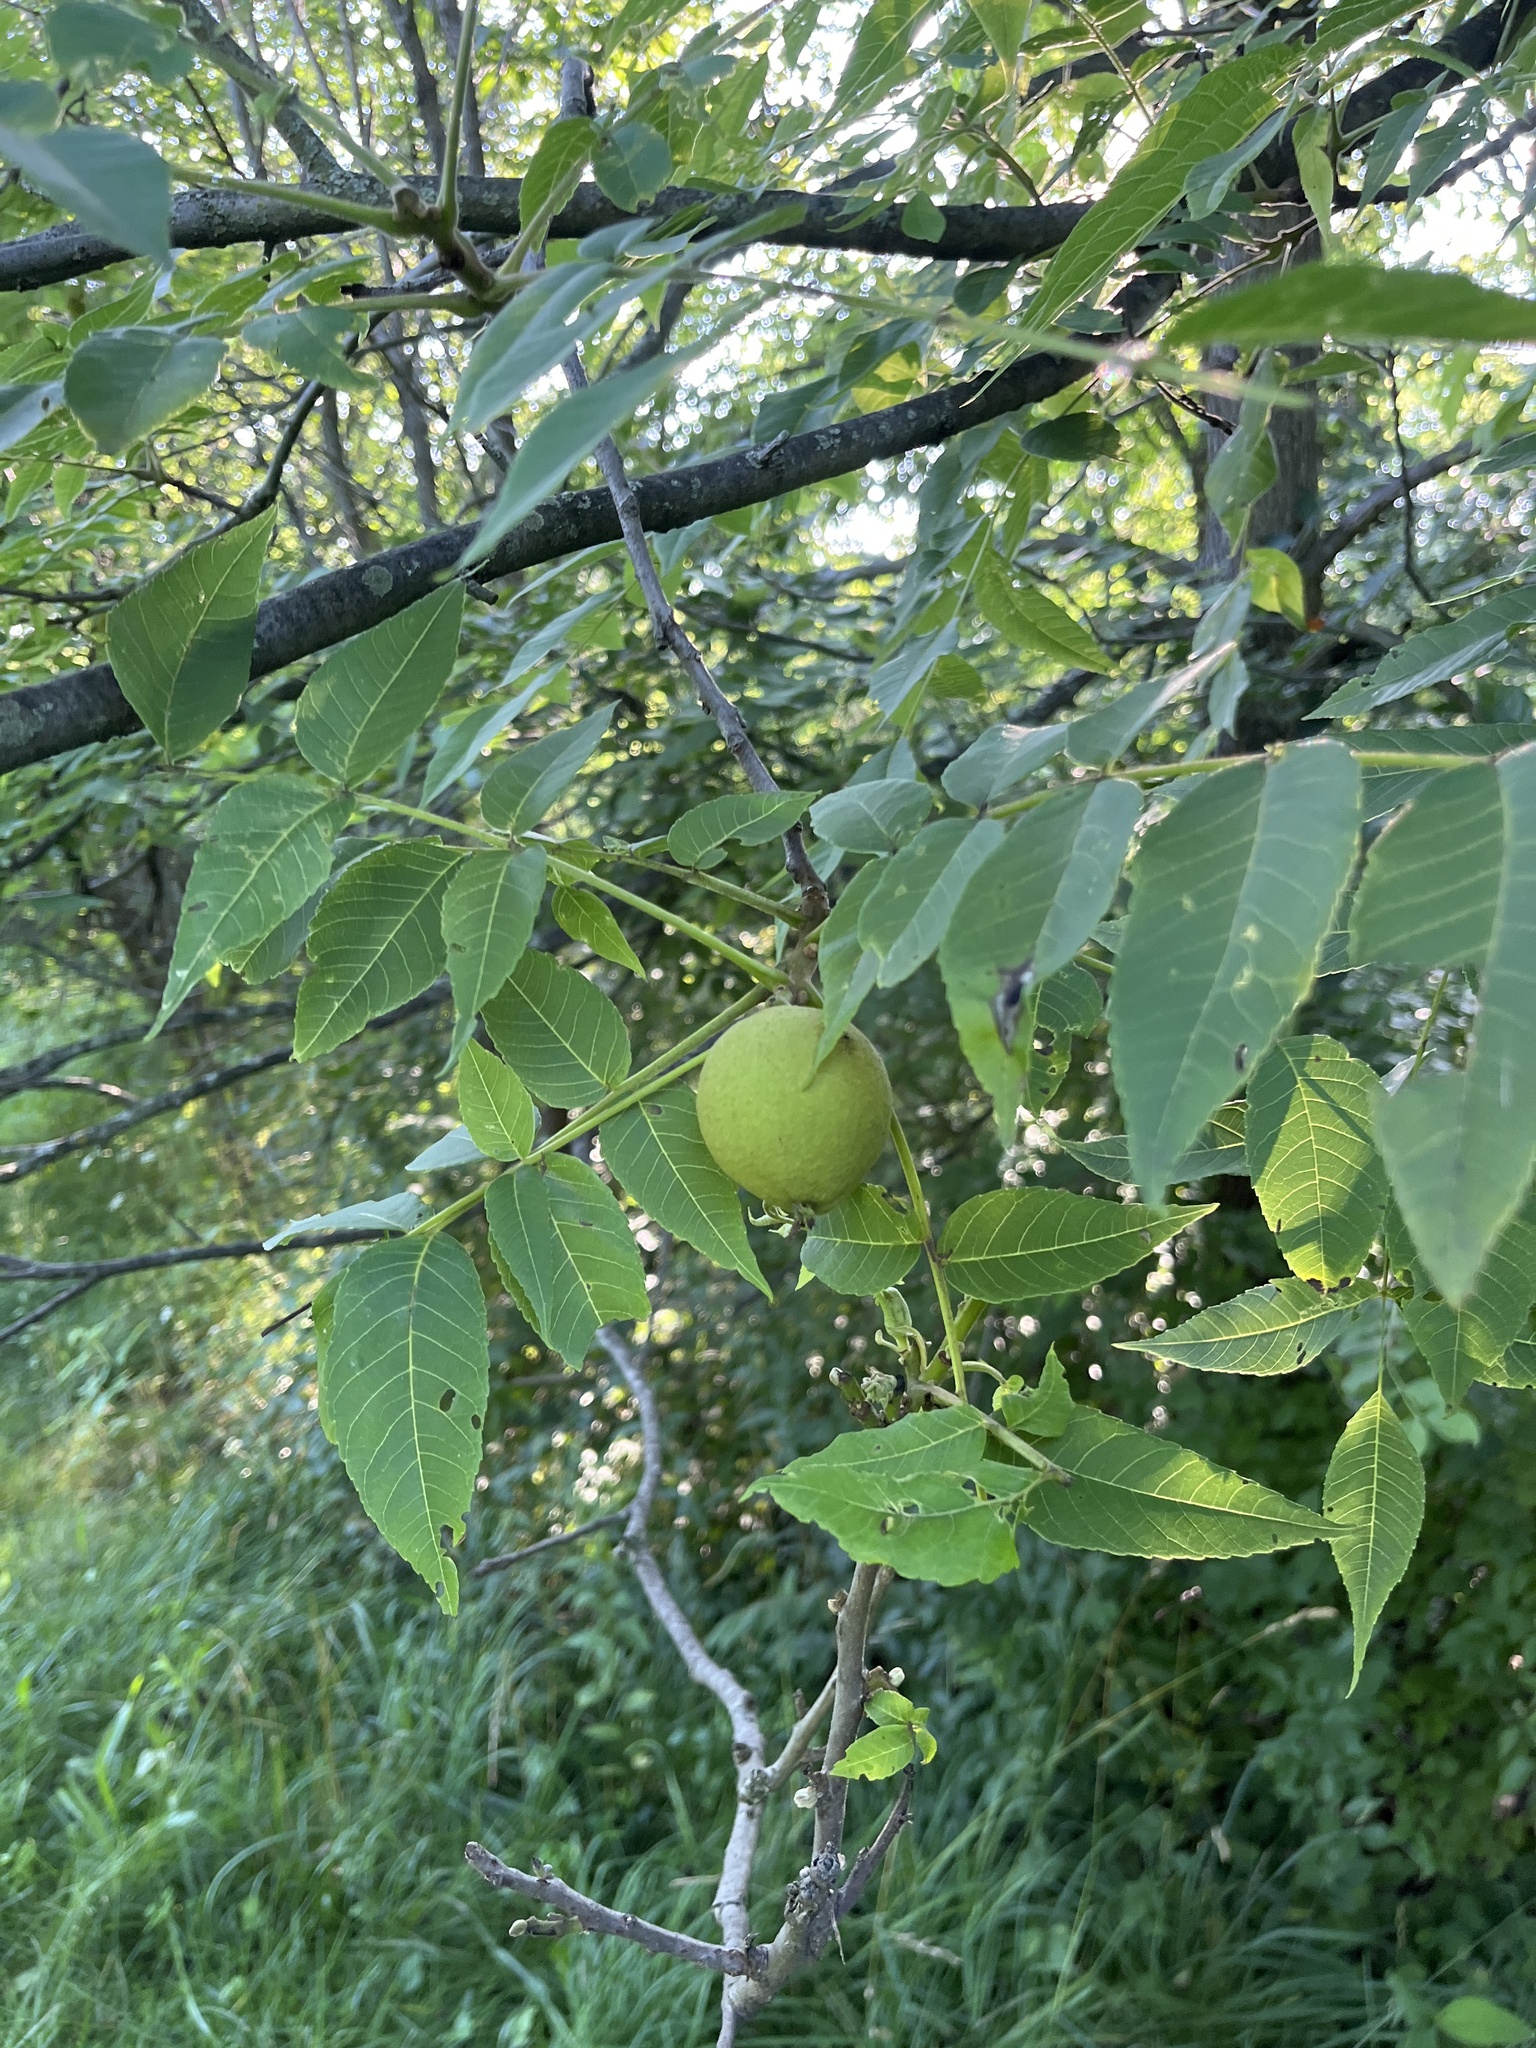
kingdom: Plantae
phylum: Tracheophyta
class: Magnoliopsida
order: Fagales
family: Juglandaceae
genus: Juglans
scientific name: Juglans nigra
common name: Black walnut
